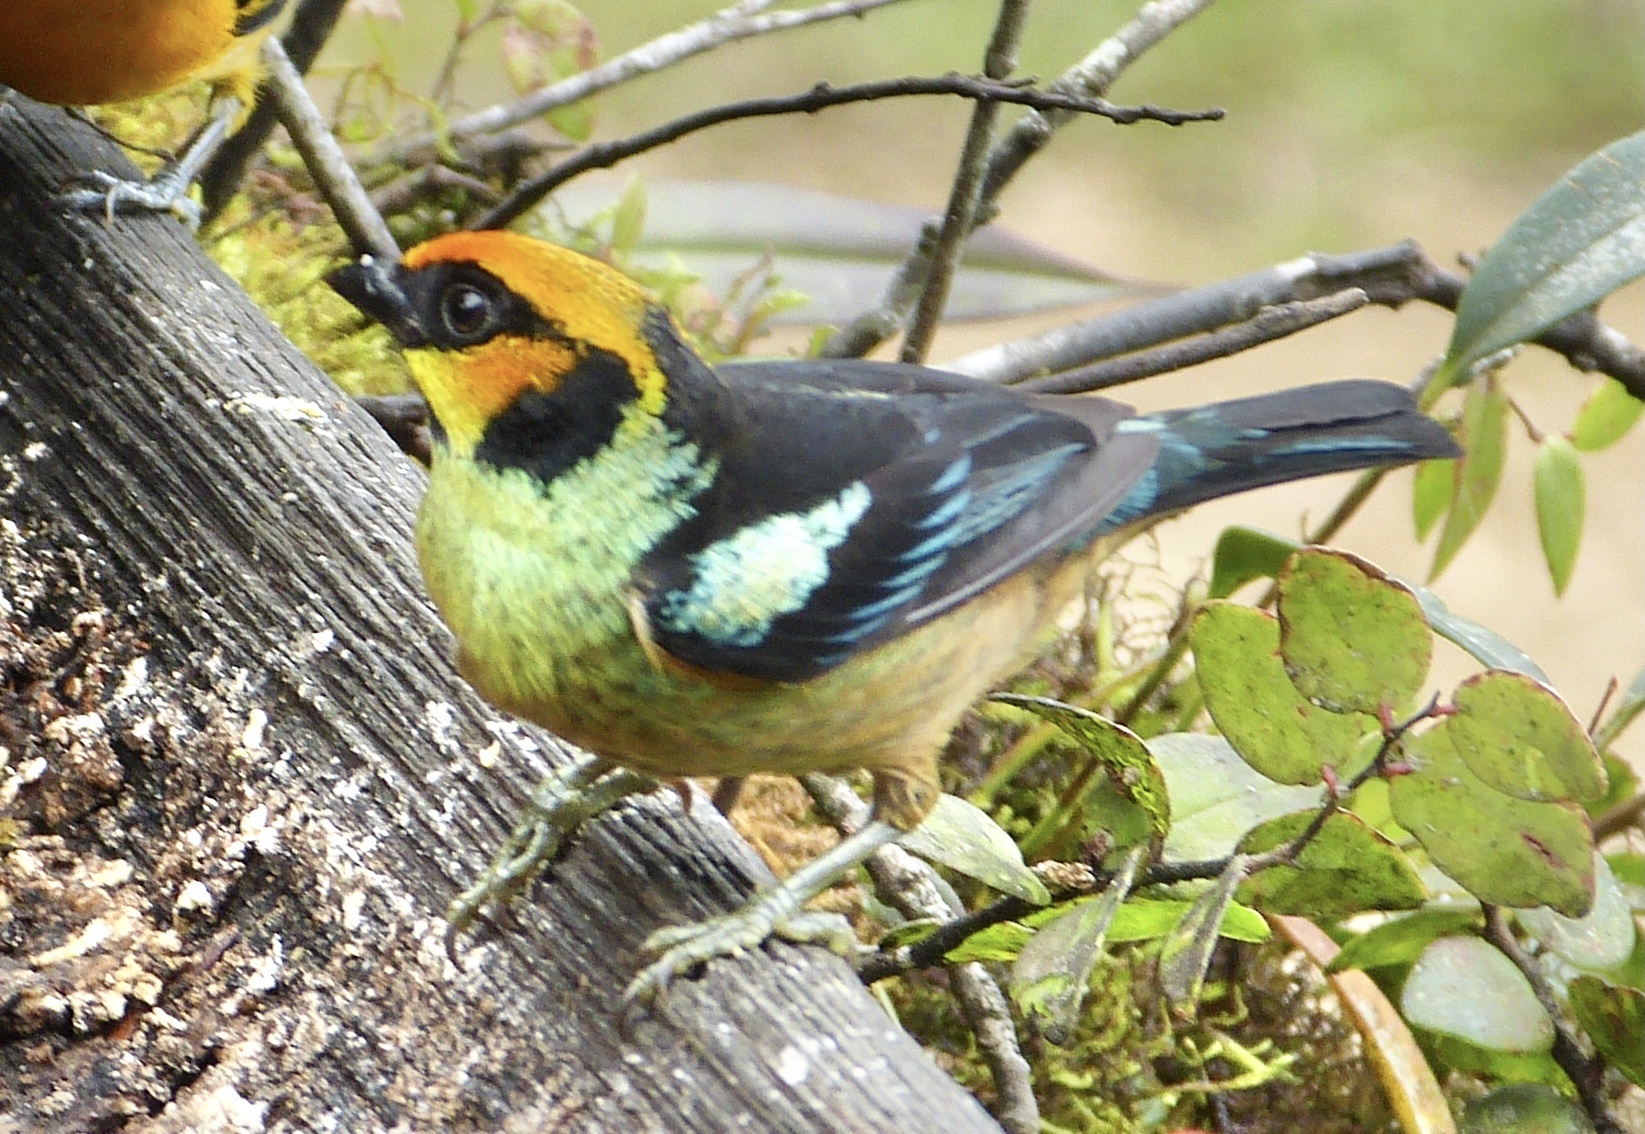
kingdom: Animalia
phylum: Chordata
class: Aves
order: Passeriformes
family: Thraupidae
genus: Tangara
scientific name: Tangara parzudakii
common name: Flame-faced tanager
